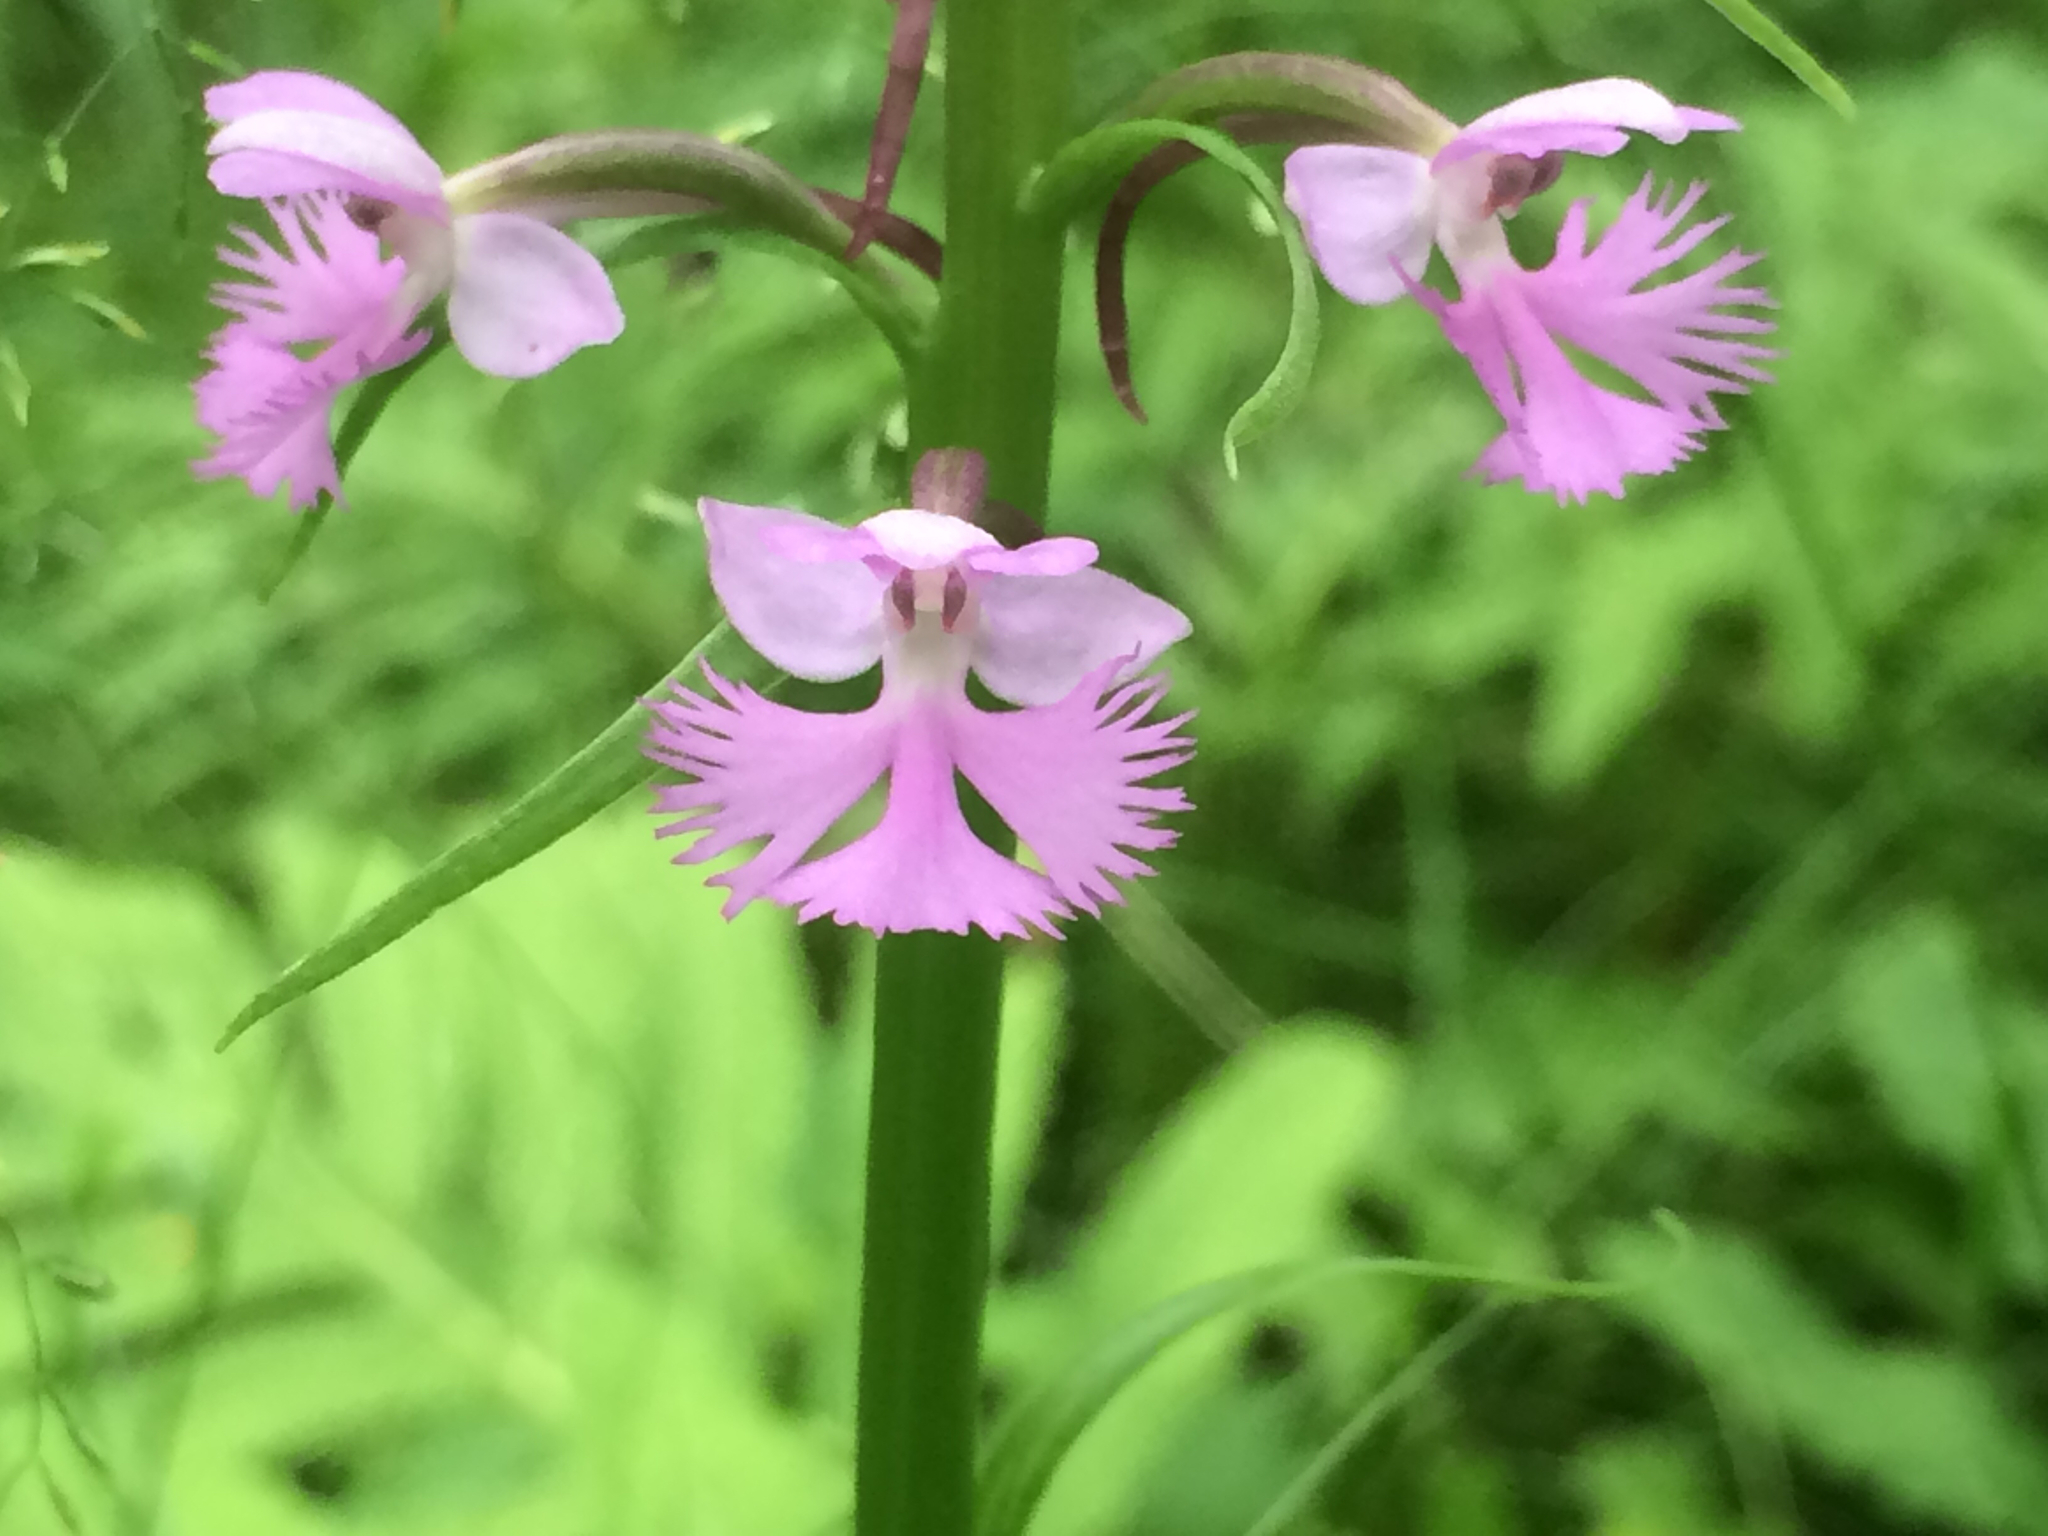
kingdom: Plantae
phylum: Tracheophyta
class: Liliopsida
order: Asparagales
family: Orchidaceae
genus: Platanthera
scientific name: Platanthera psycodes
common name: Lesser purple fringed orchid
